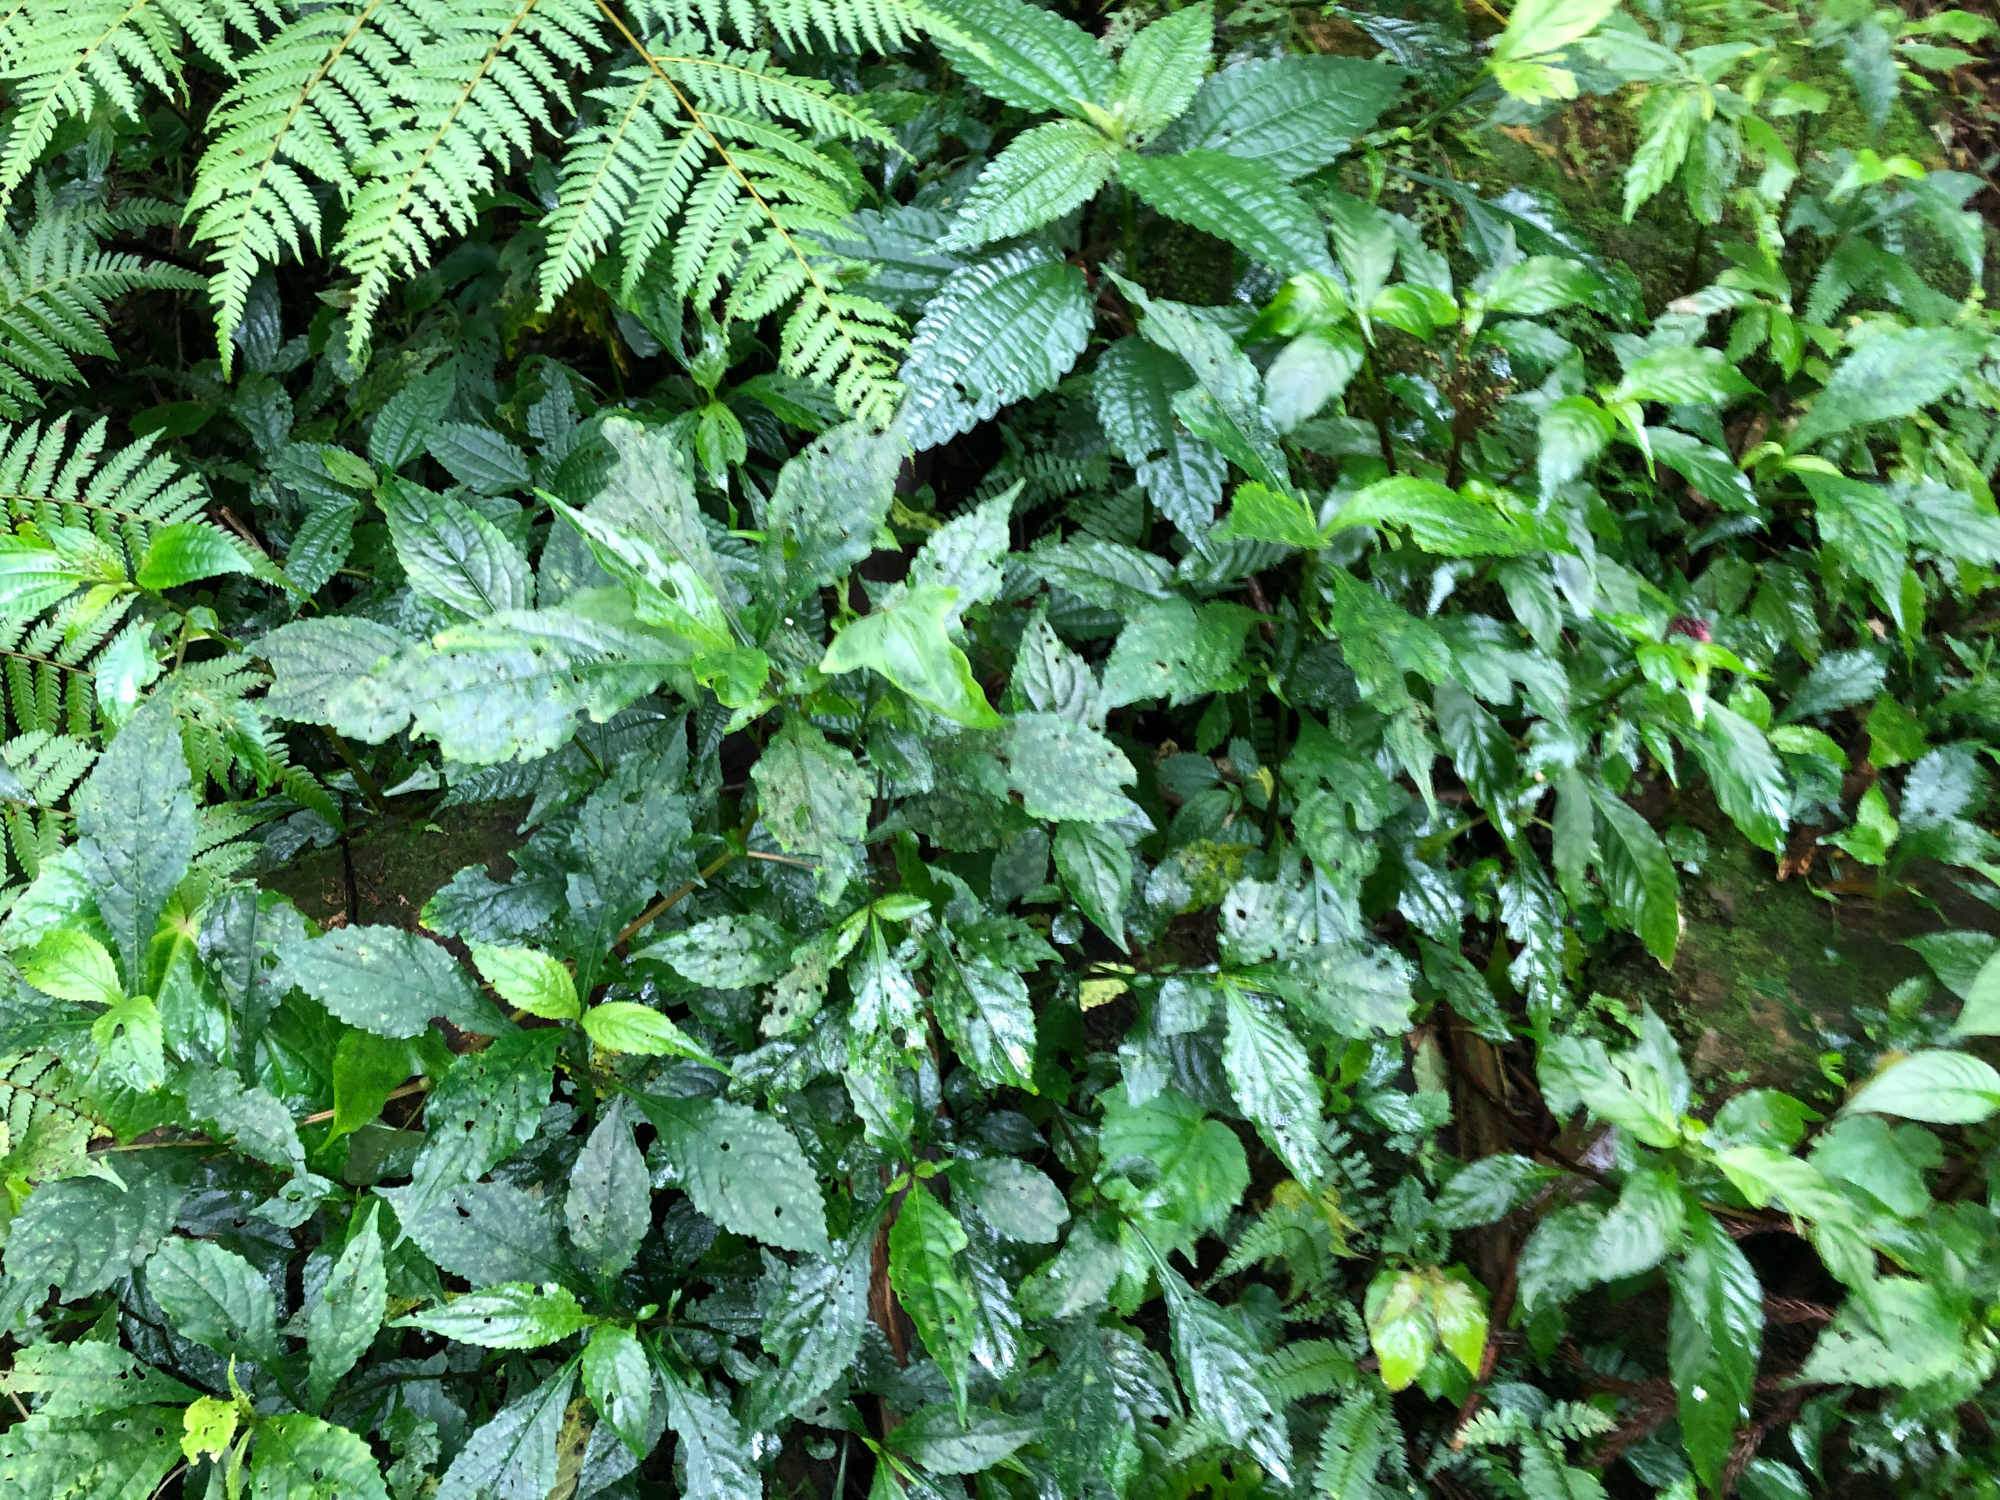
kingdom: Plantae
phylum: Tracheophyta
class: Magnoliopsida
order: Lamiales
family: Acanthaceae
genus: Strobilanthes
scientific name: Strobilanthes flexicaulis
